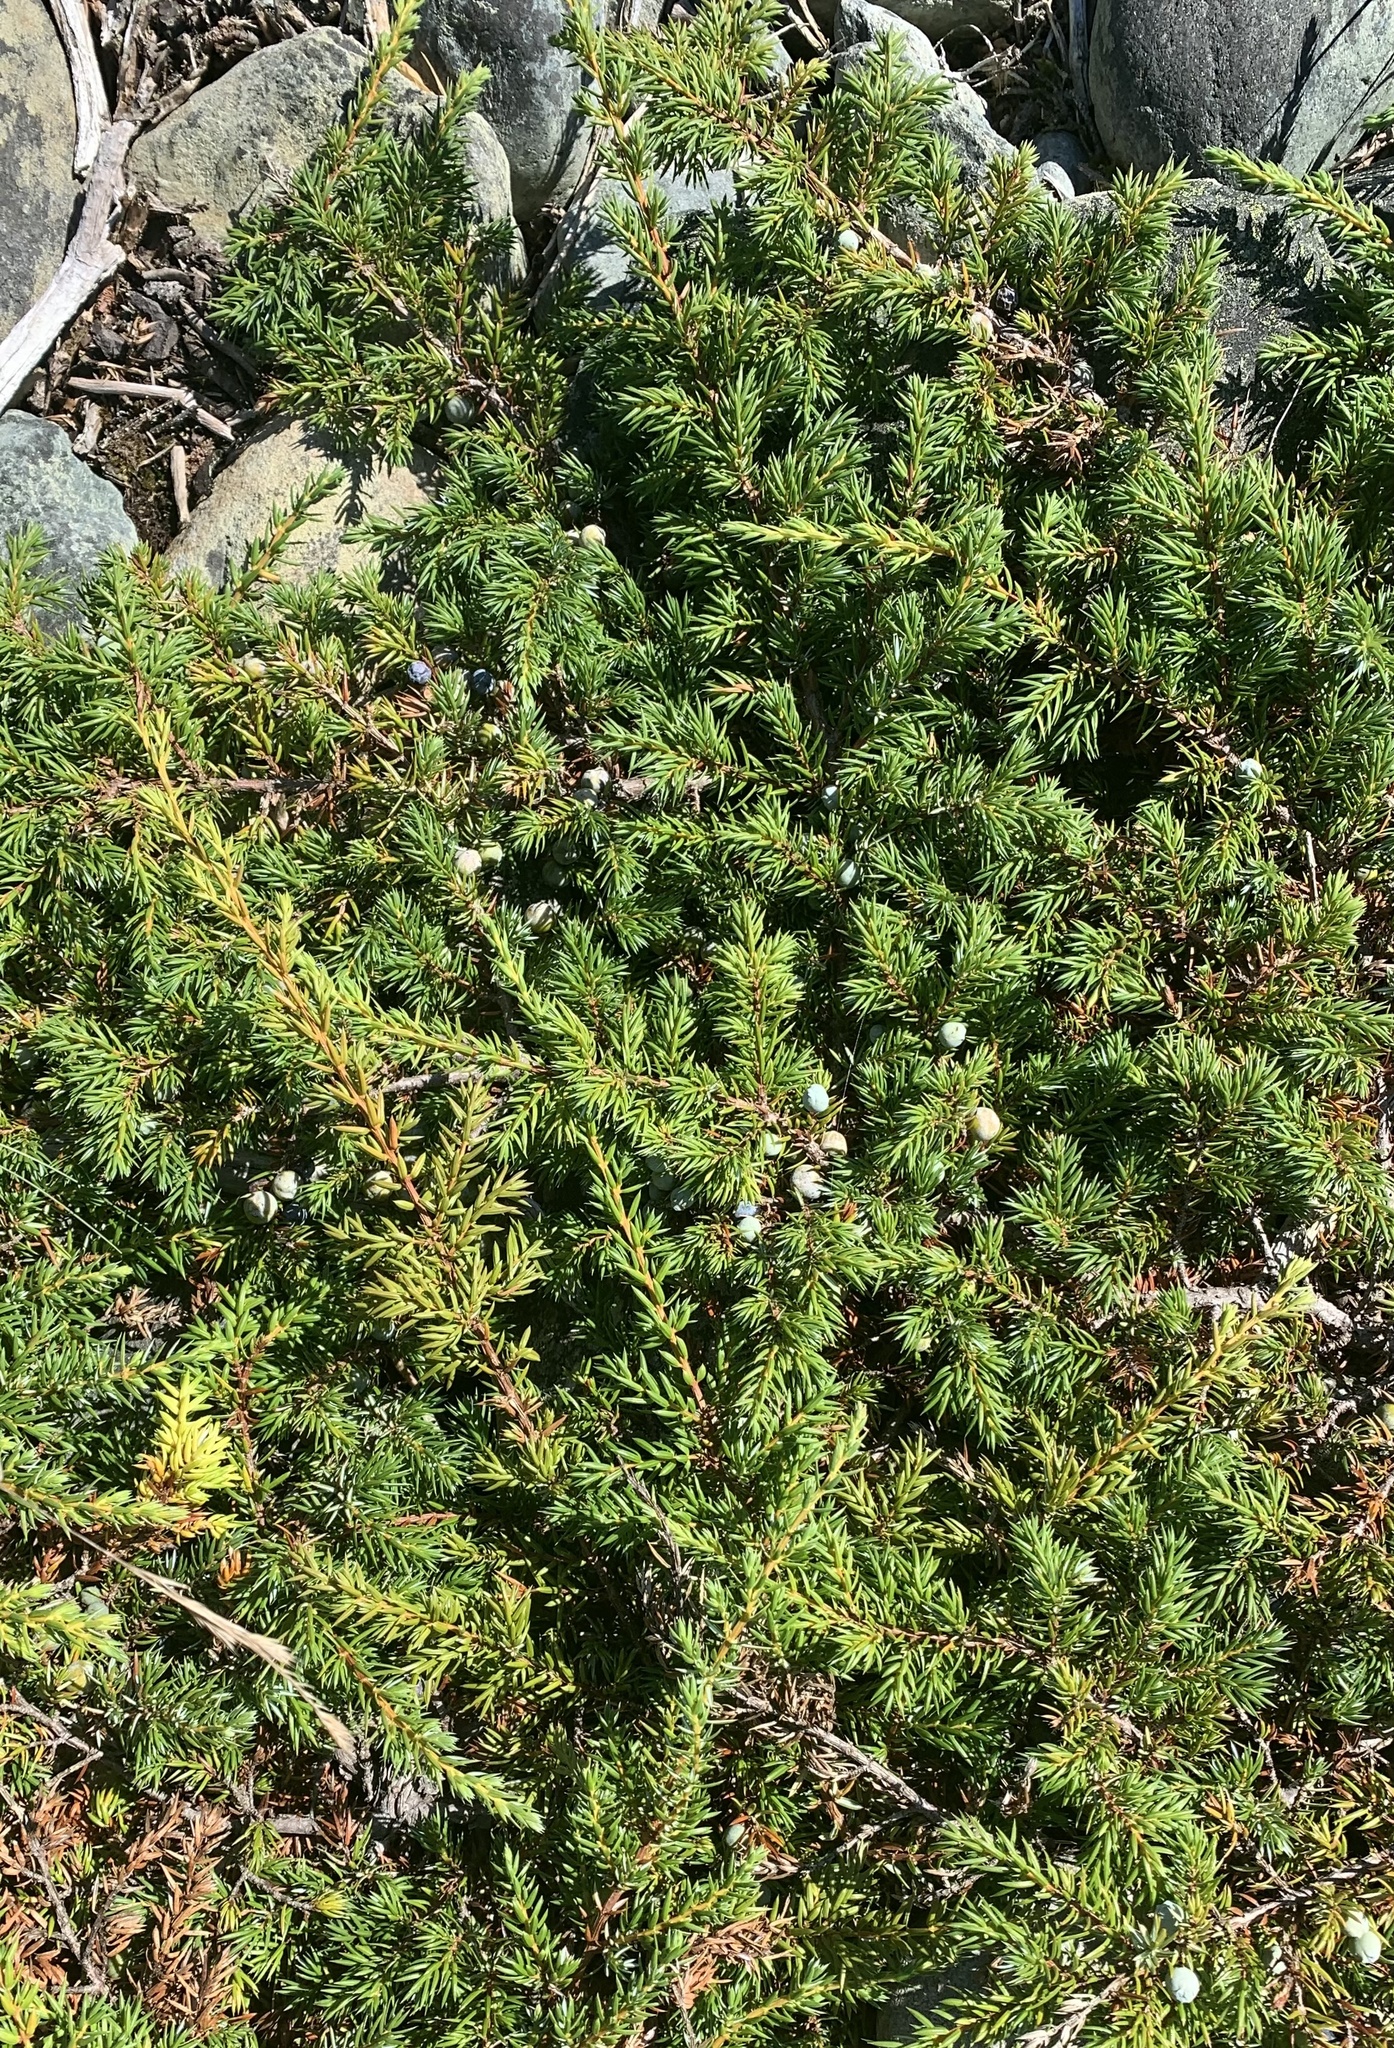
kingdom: Plantae
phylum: Tracheophyta
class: Pinopsida
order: Pinales
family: Cupressaceae
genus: Juniperus
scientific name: Juniperus communis
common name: Common juniper
